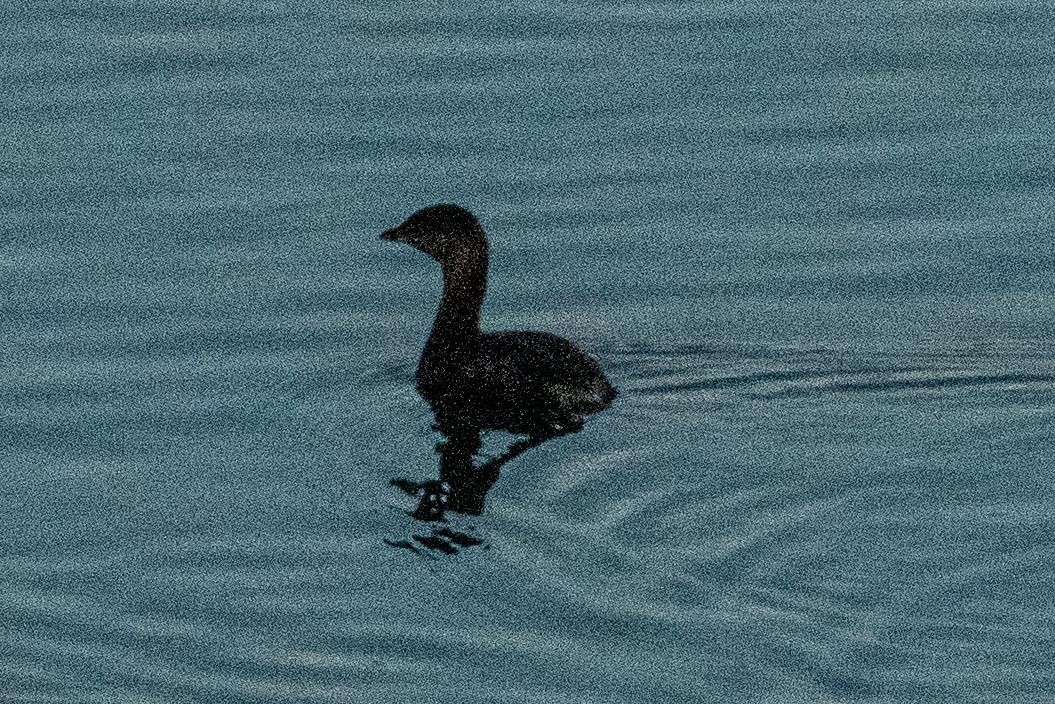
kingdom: Animalia
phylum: Chordata
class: Aves
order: Podicipediformes
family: Podicipedidae
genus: Podilymbus
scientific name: Podilymbus podiceps
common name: Pied-billed grebe
